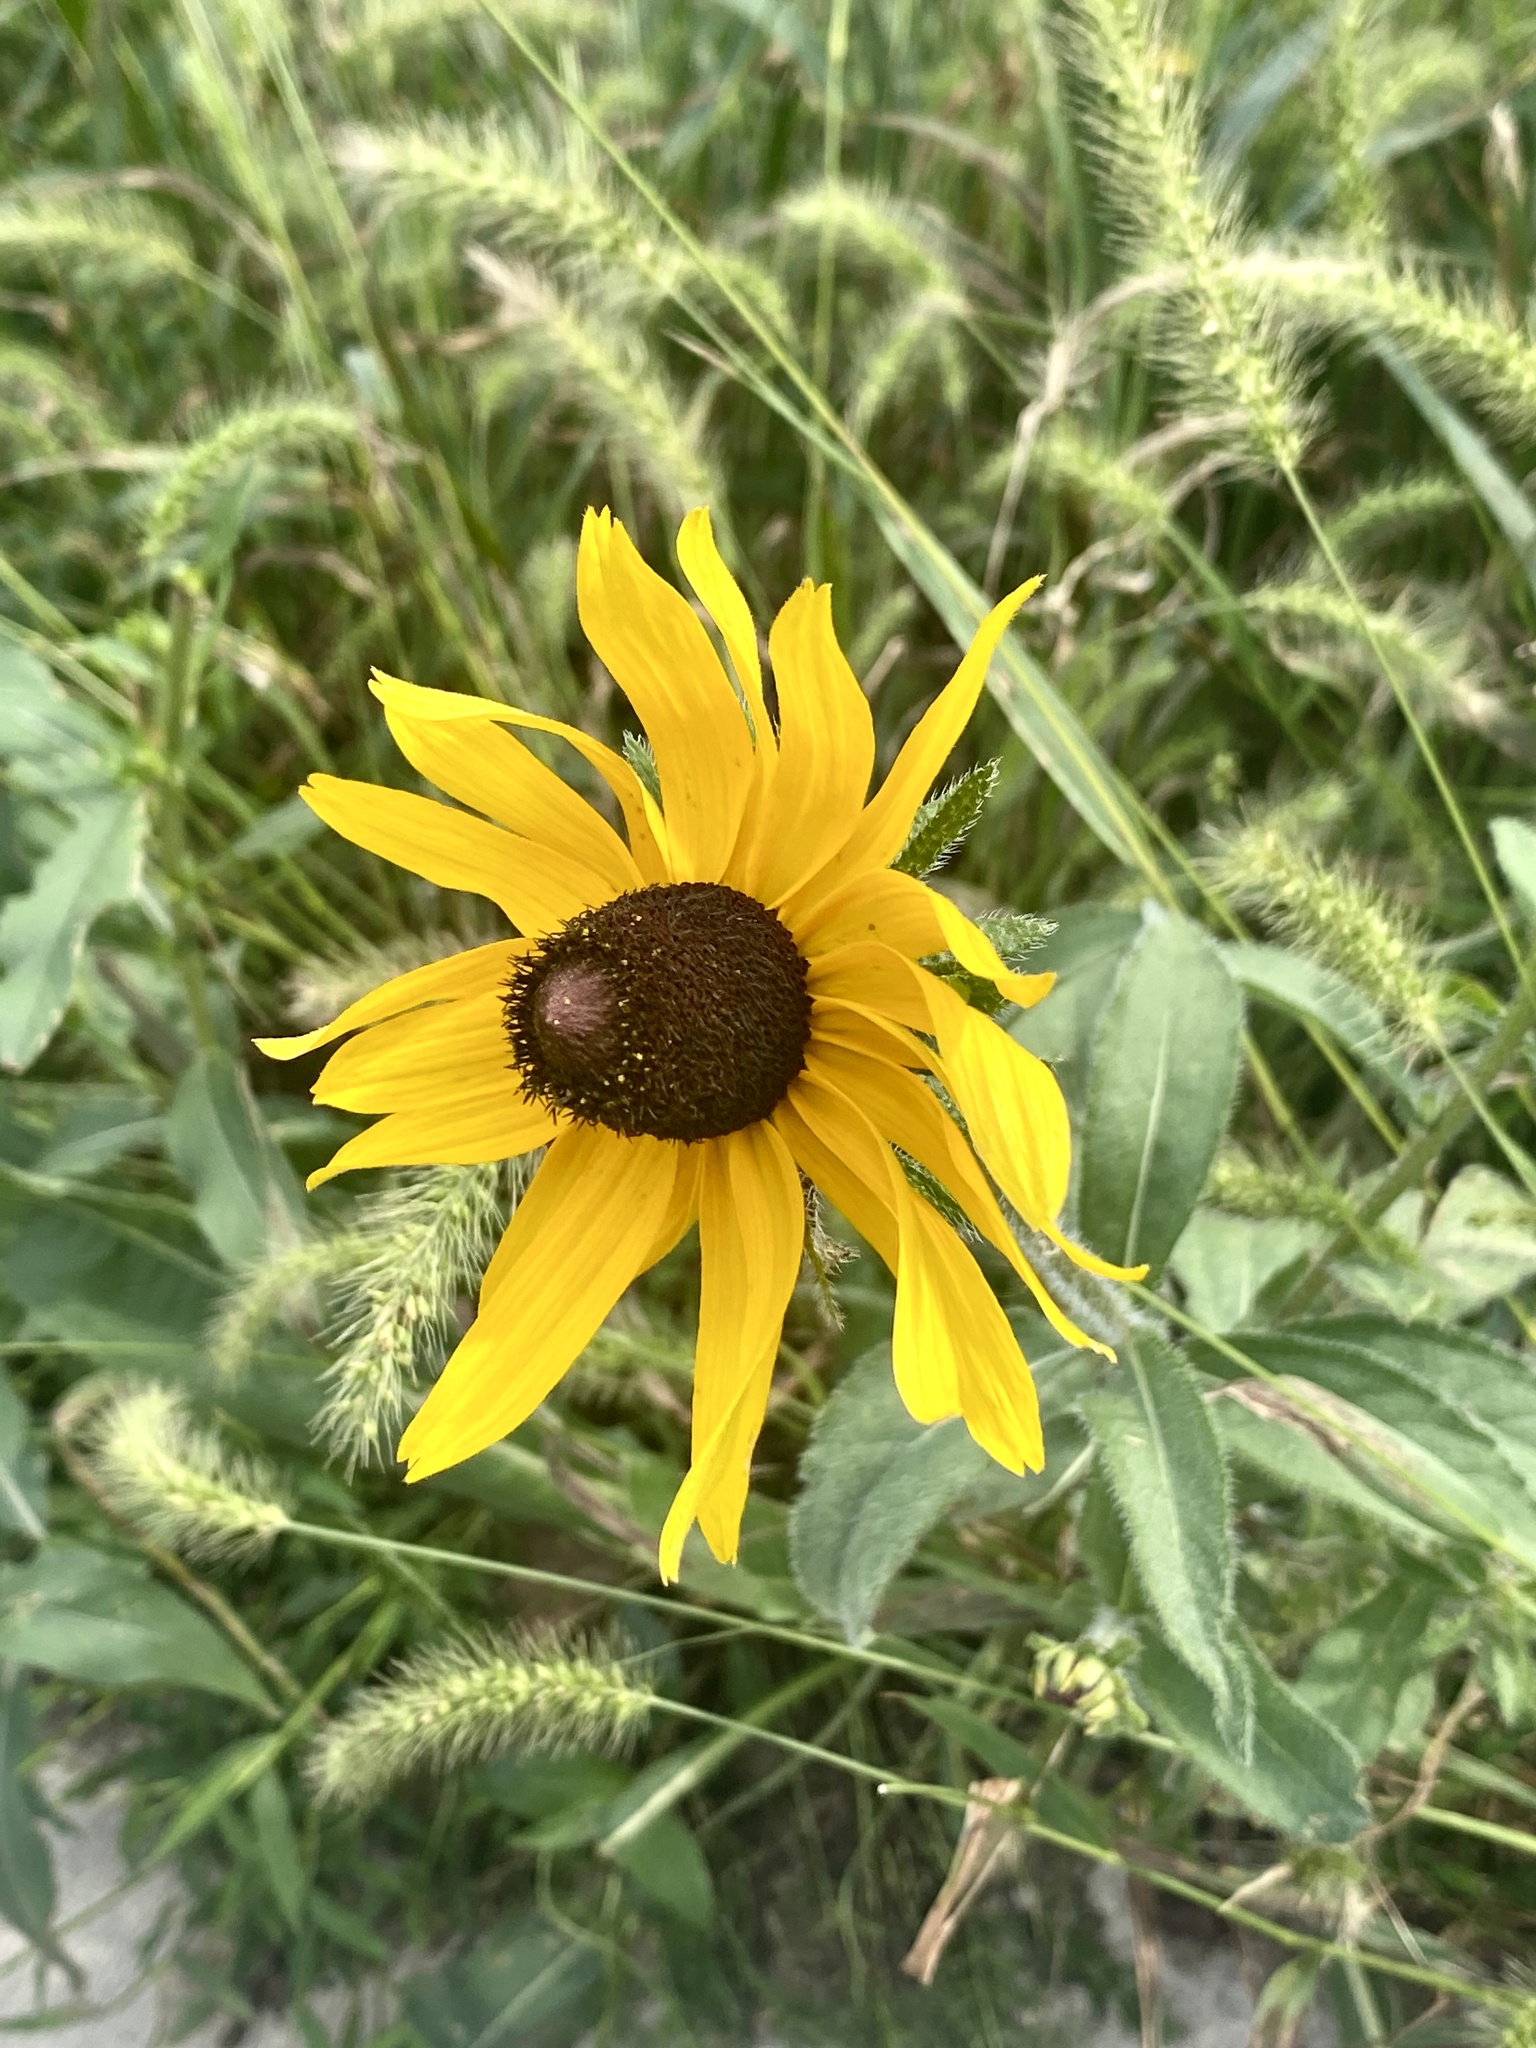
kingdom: Plantae
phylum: Tracheophyta
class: Magnoliopsida
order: Asterales
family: Asteraceae
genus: Rudbeckia
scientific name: Rudbeckia hirta
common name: Black-eyed-susan
